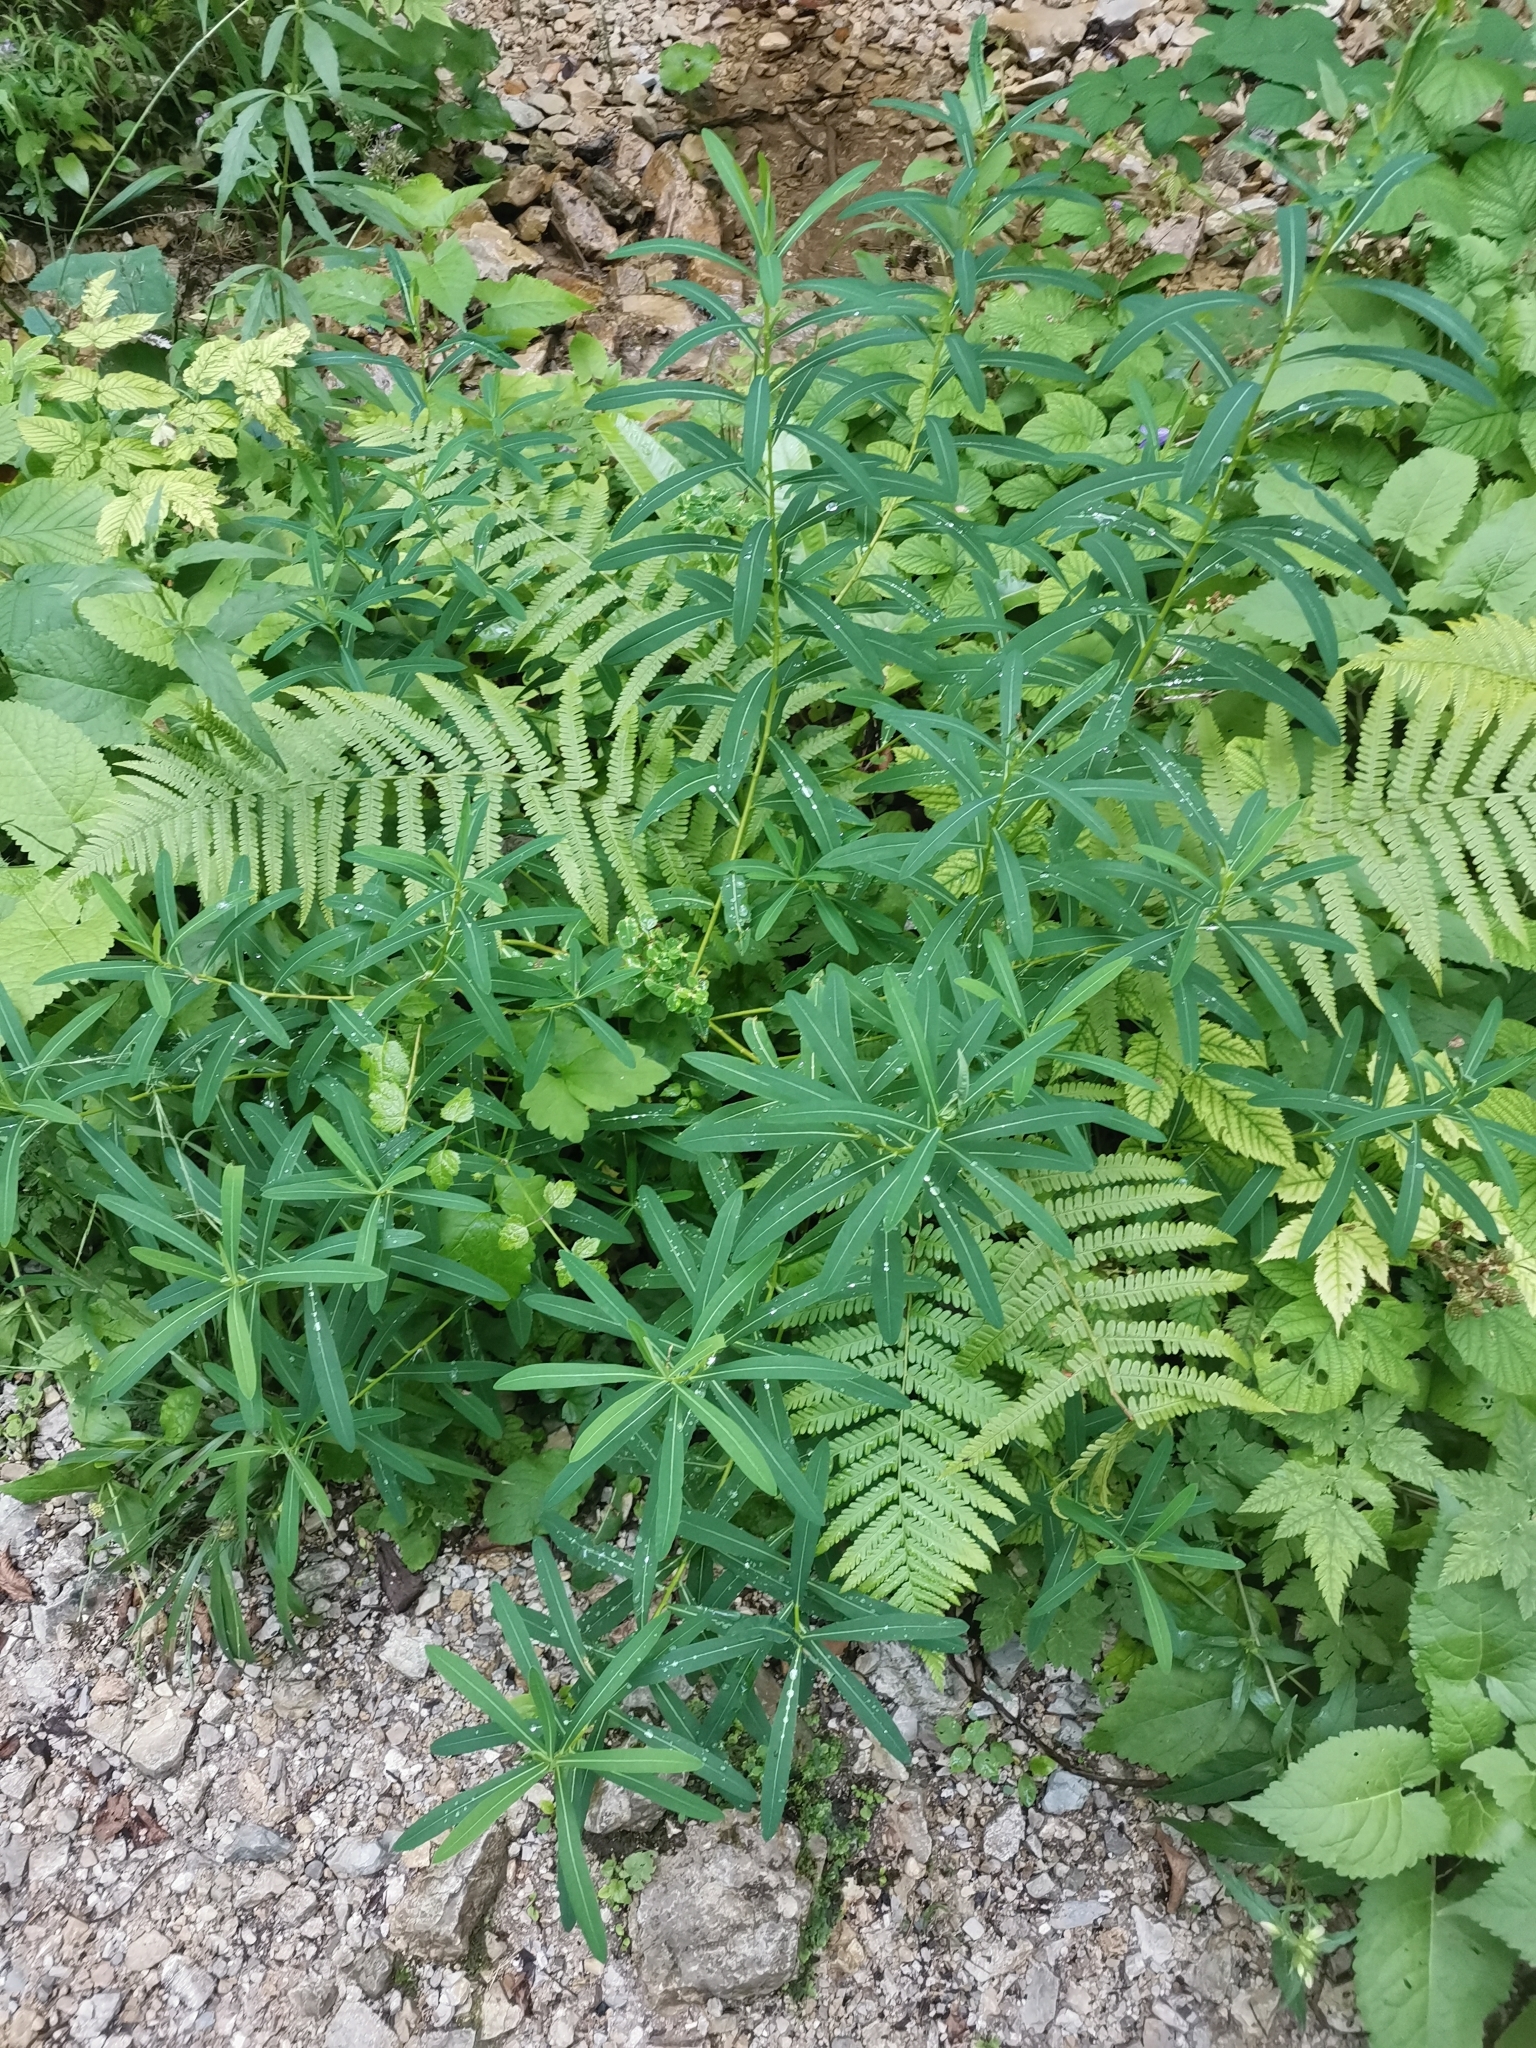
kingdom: Plantae
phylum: Tracheophyta
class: Magnoliopsida
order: Malpighiales
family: Euphorbiaceae
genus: Euphorbia
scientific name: Euphorbia illirica
